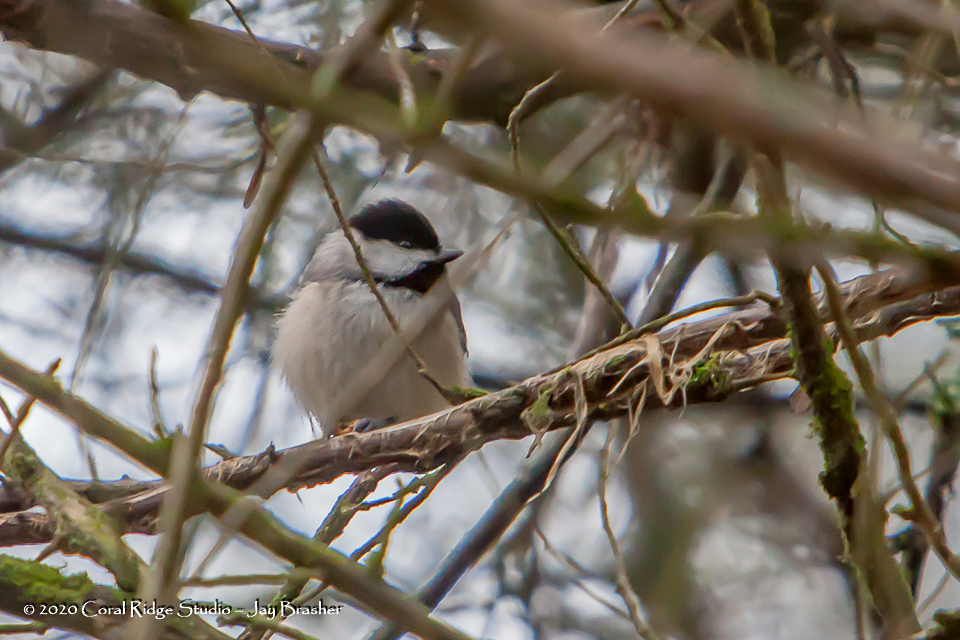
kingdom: Animalia
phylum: Chordata
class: Aves
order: Passeriformes
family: Paridae
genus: Poecile
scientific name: Poecile carolinensis
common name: Carolina chickadee
